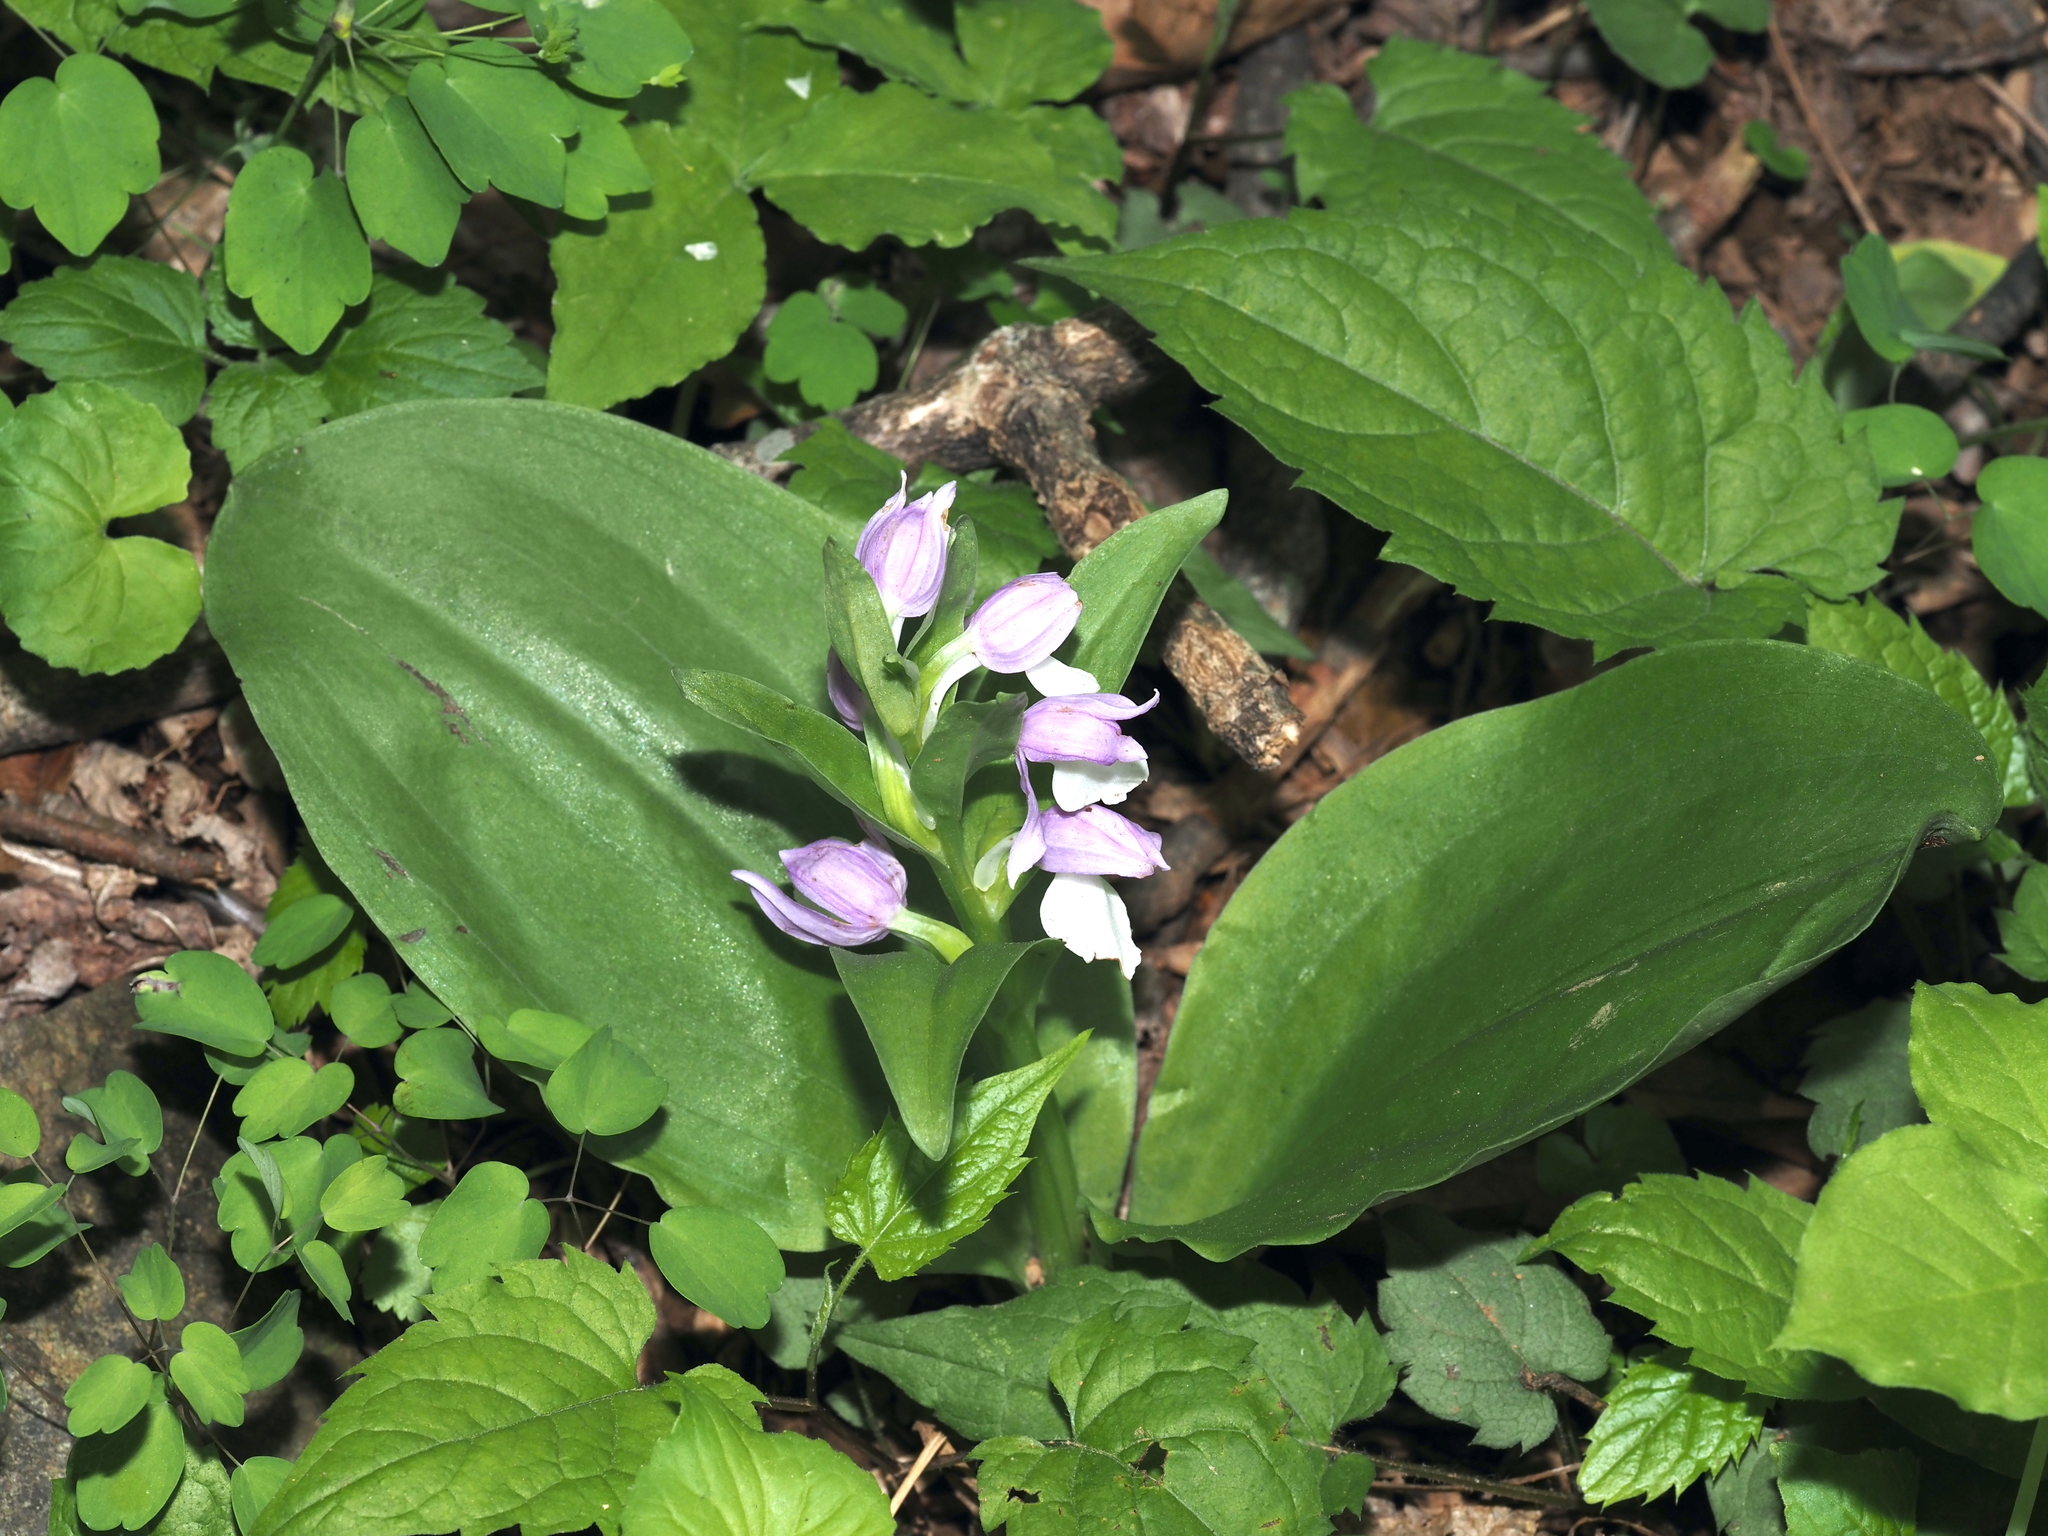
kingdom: Plantae
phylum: Tracheophyta
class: Liliopsida
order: Asparagales
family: Orchidaceae
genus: Galearis
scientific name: Galearis spectabilis
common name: Purple-hooded orchis
